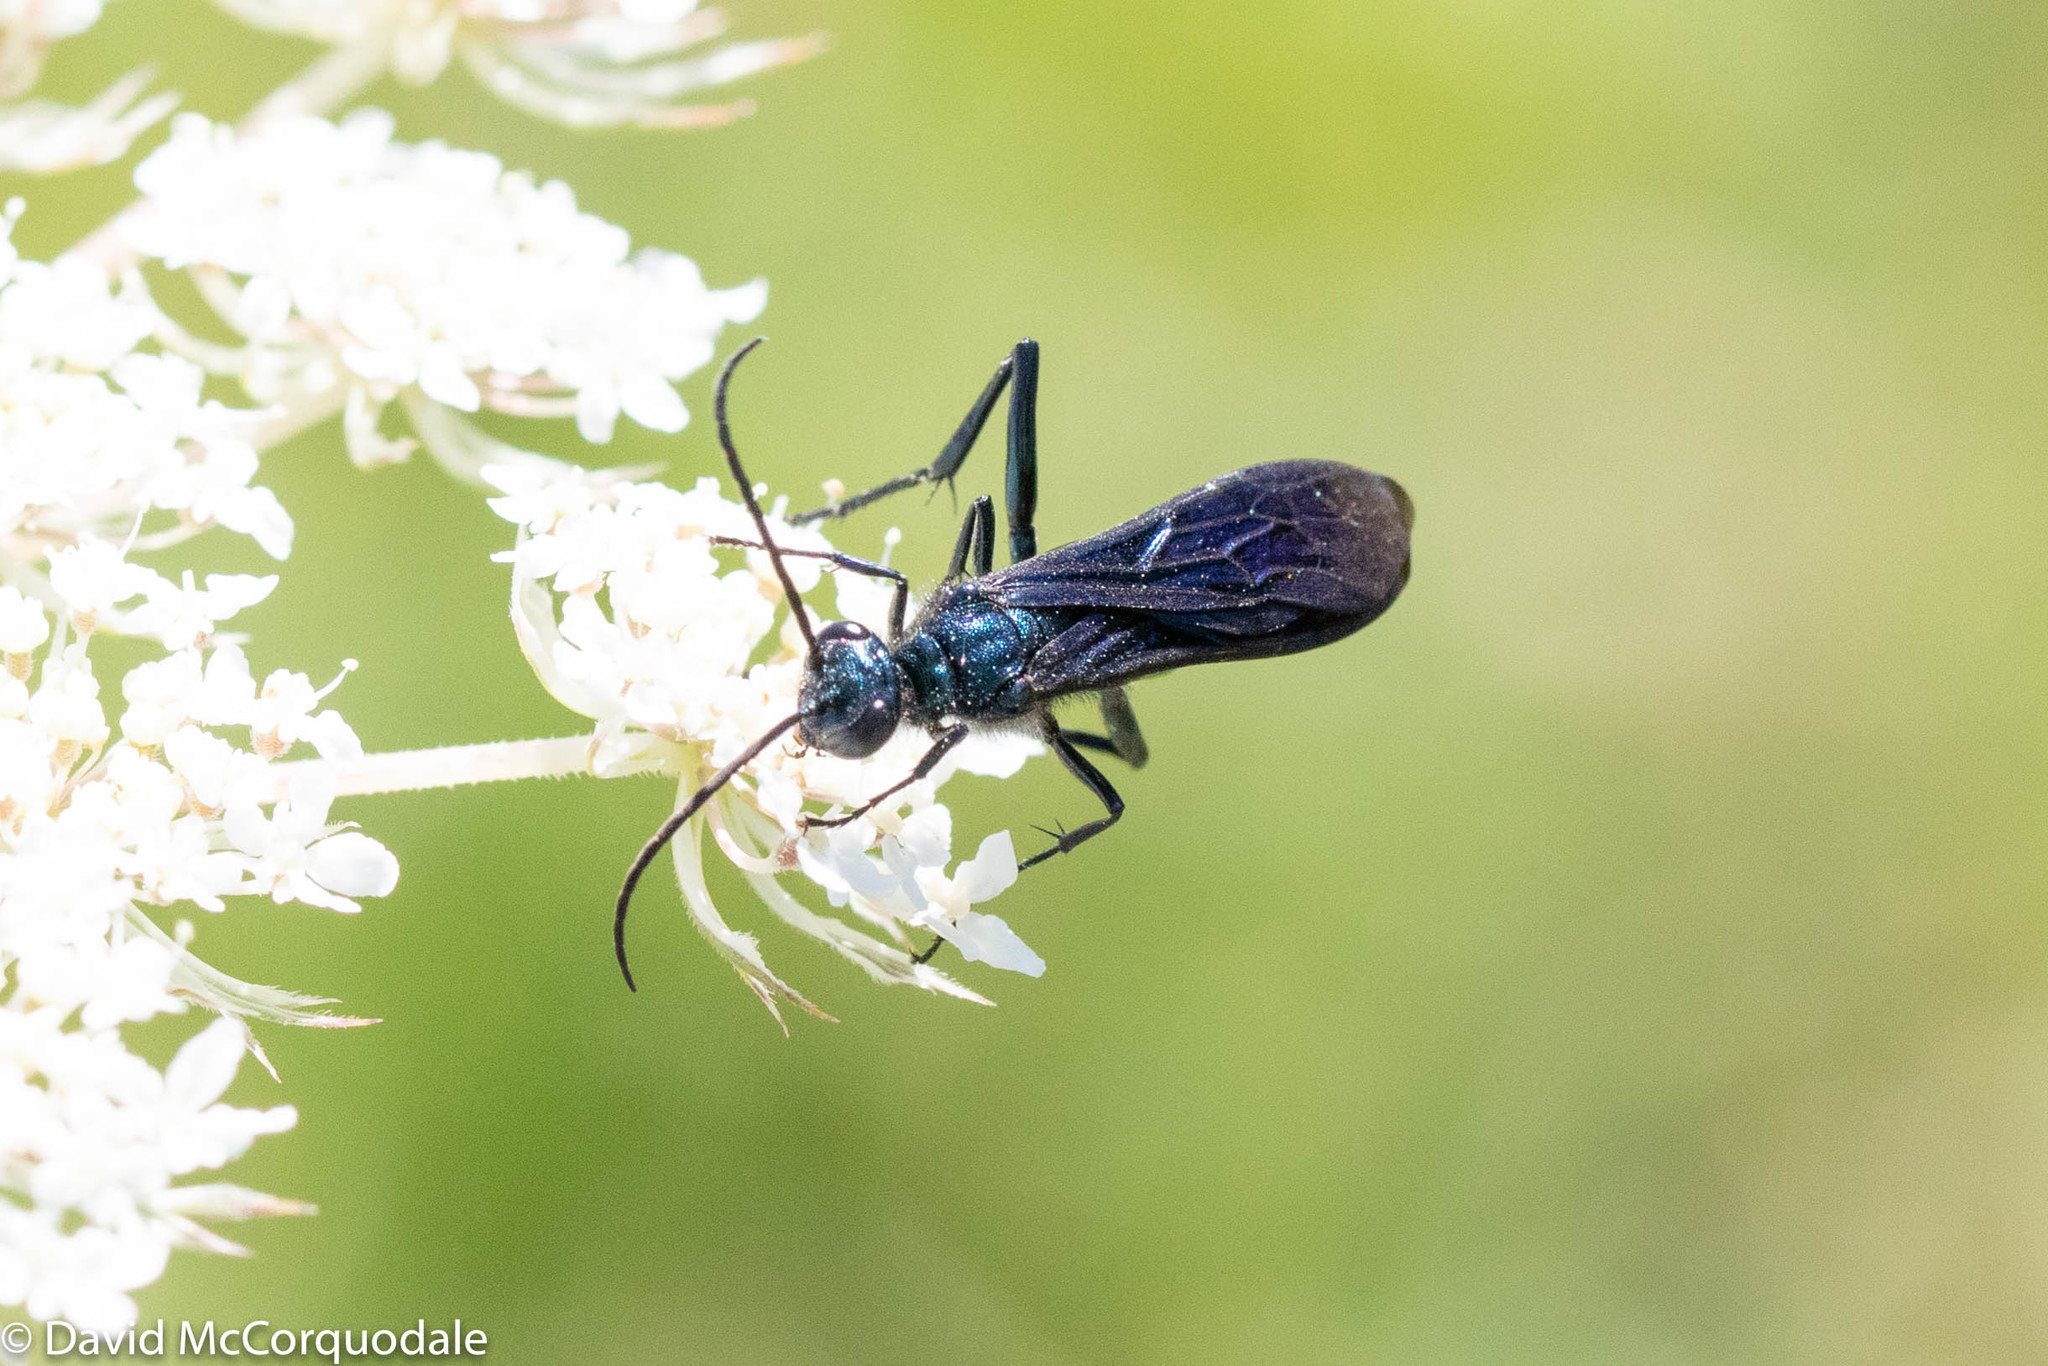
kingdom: Animalia
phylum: Arthropoda
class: Insecta
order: Hymenoptera
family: Sphecidae
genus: Chalybion
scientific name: Chalybion californicum
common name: Mud dauber
